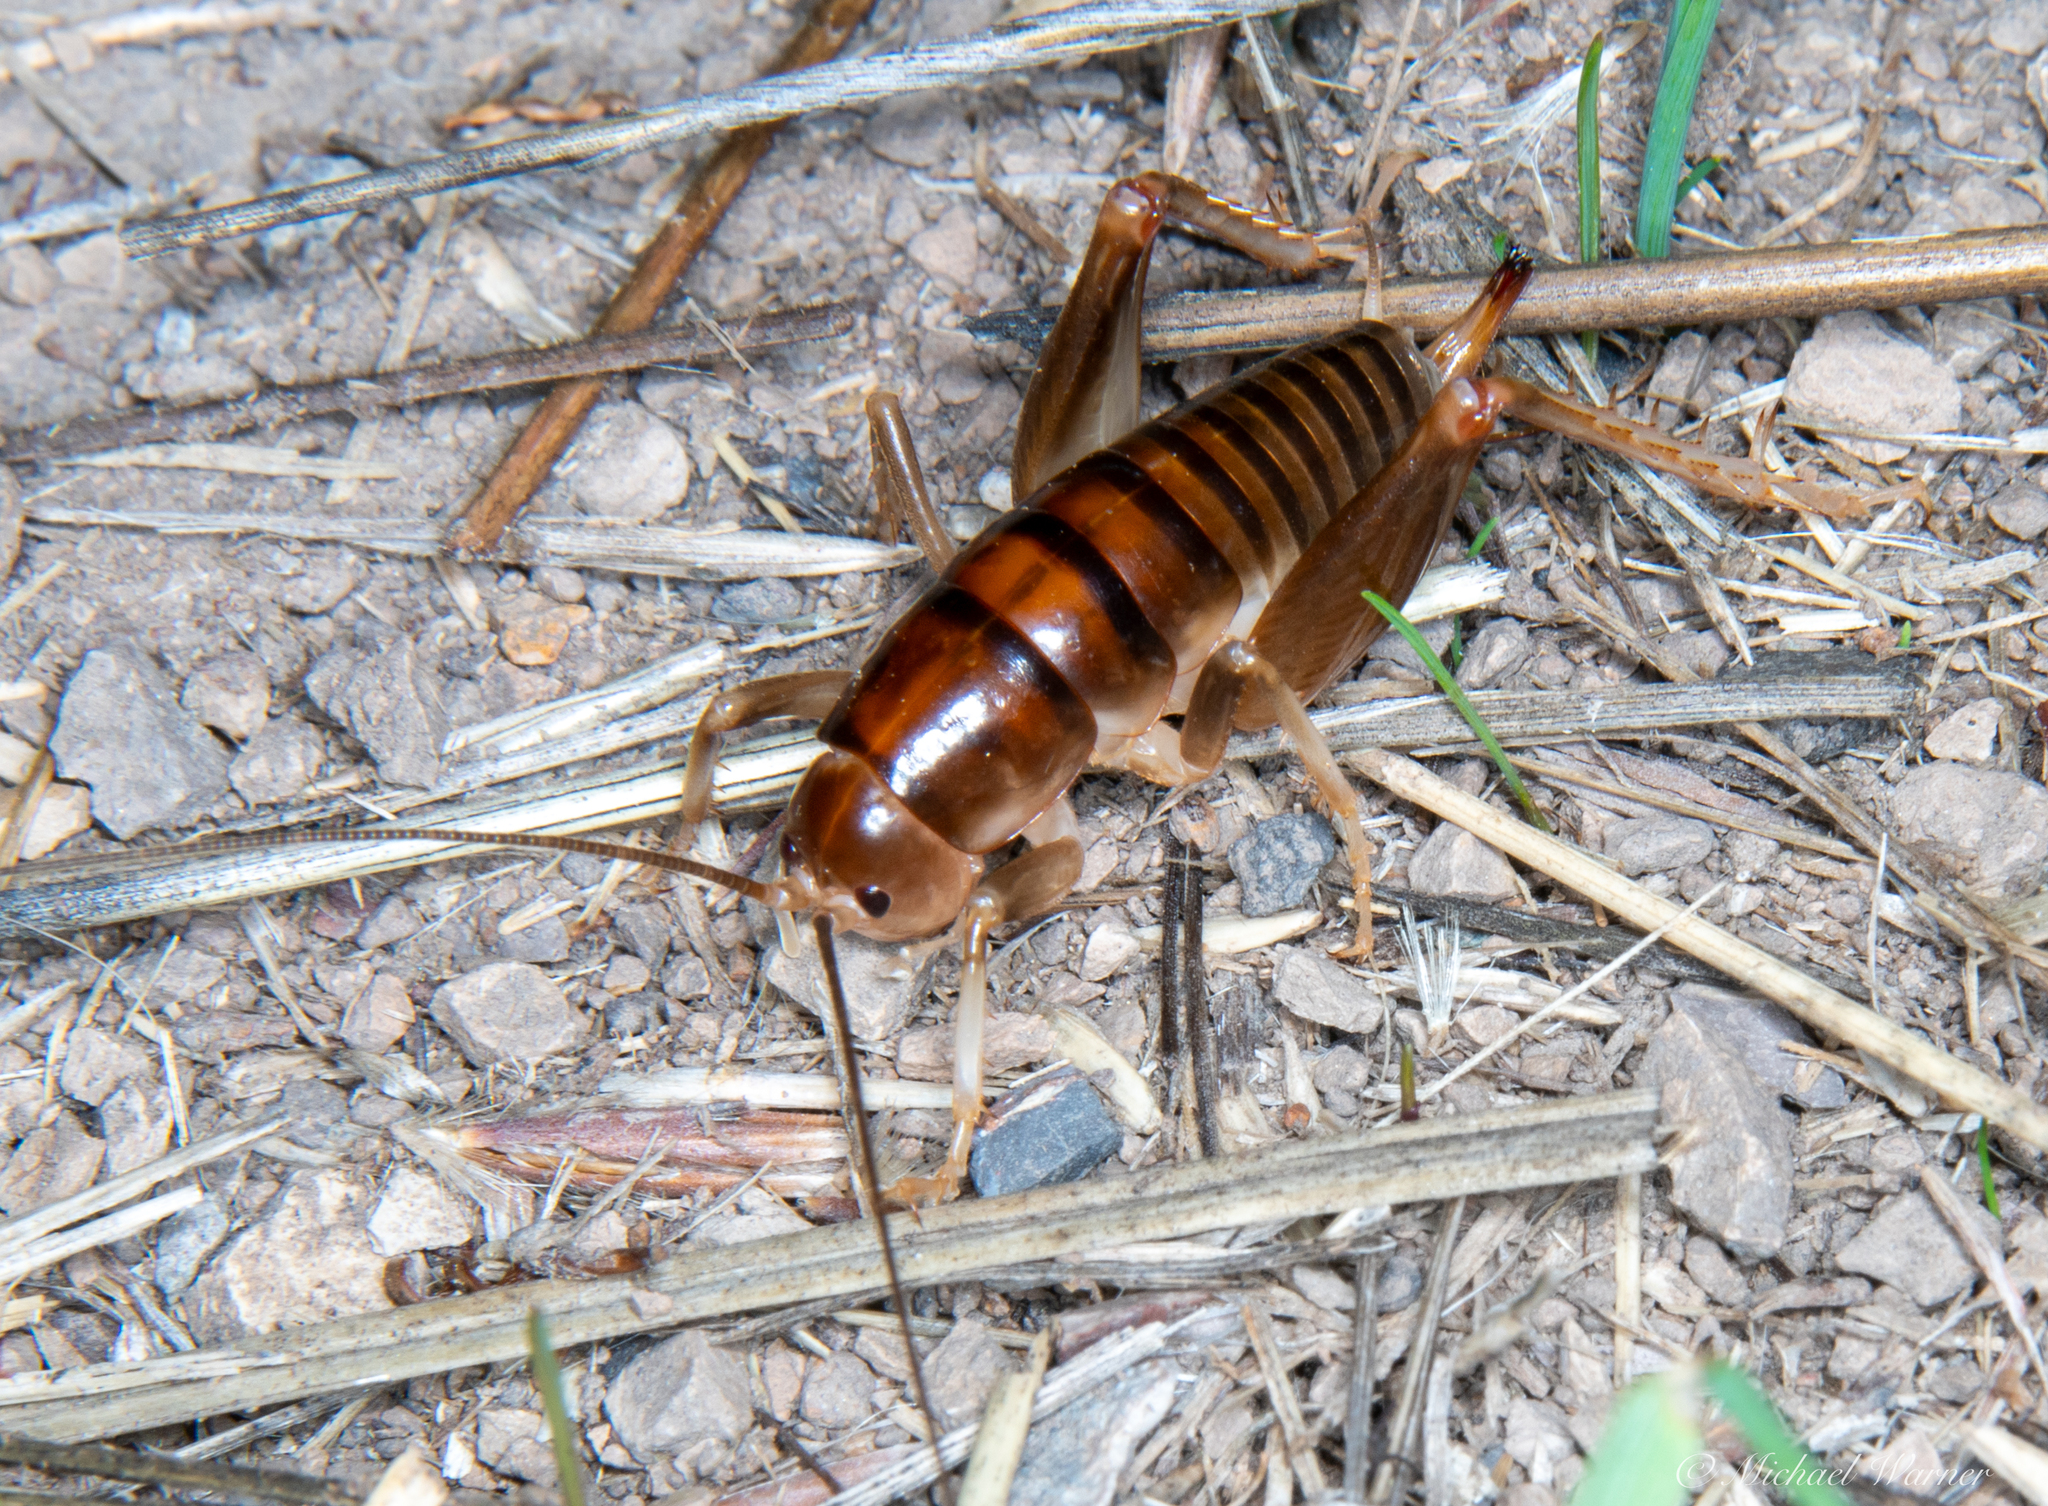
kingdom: Animalia
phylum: Arthropoda
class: Insecta
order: Orthoptera
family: Rhaphidophoridae
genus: Ceuthophilus
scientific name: Ceuthophilus californianus
